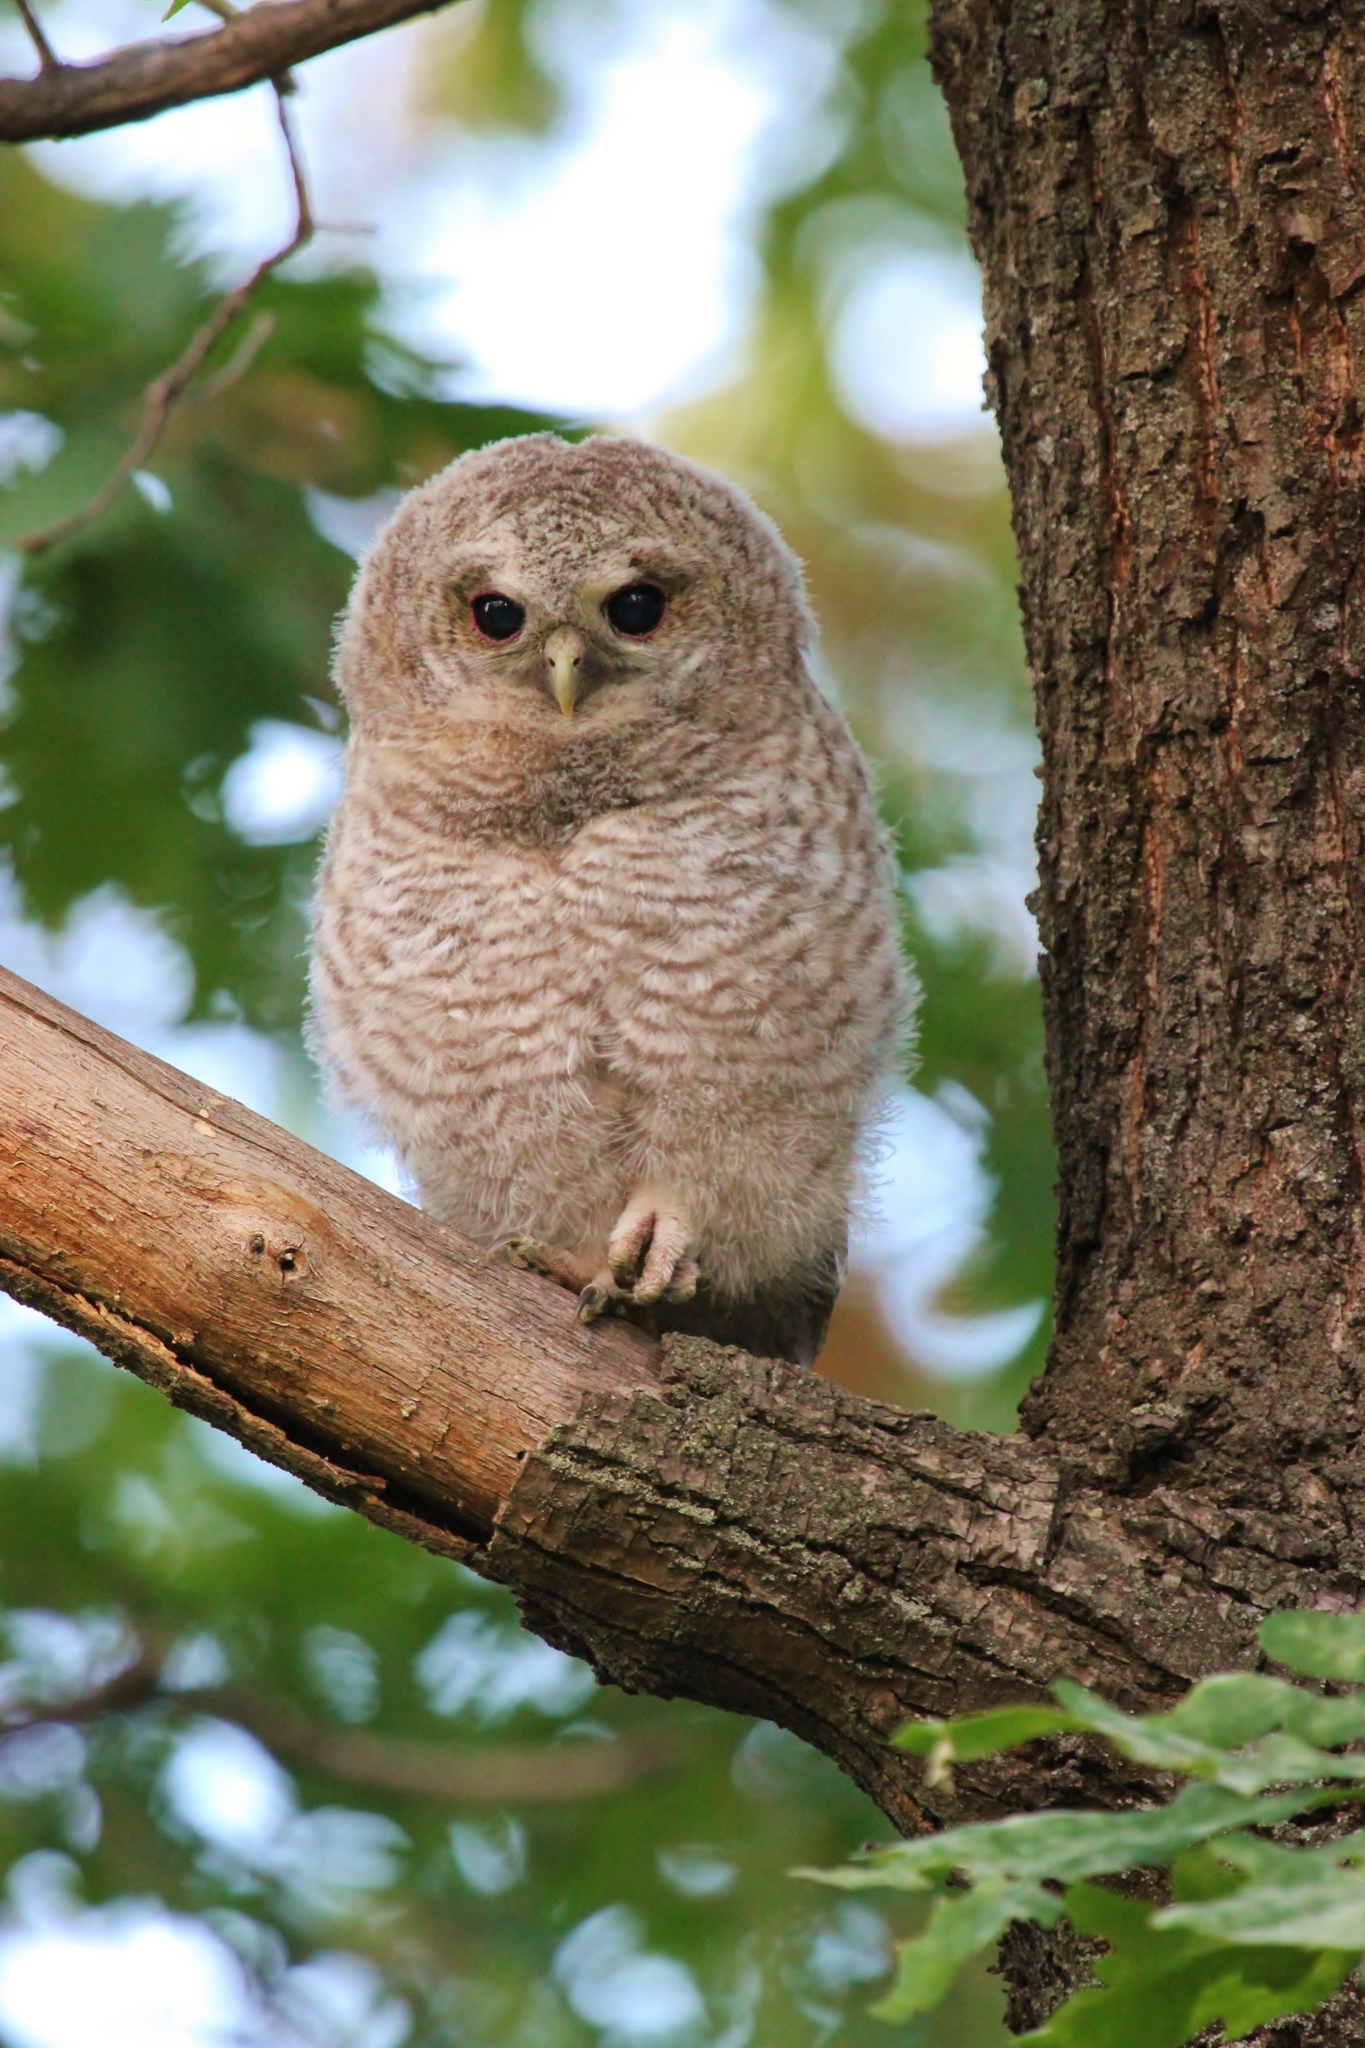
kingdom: Animalia
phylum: Chordata
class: Aves
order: Strigiformes
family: Strigidae
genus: Strix
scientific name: Strix aluco
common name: Tawny owl
